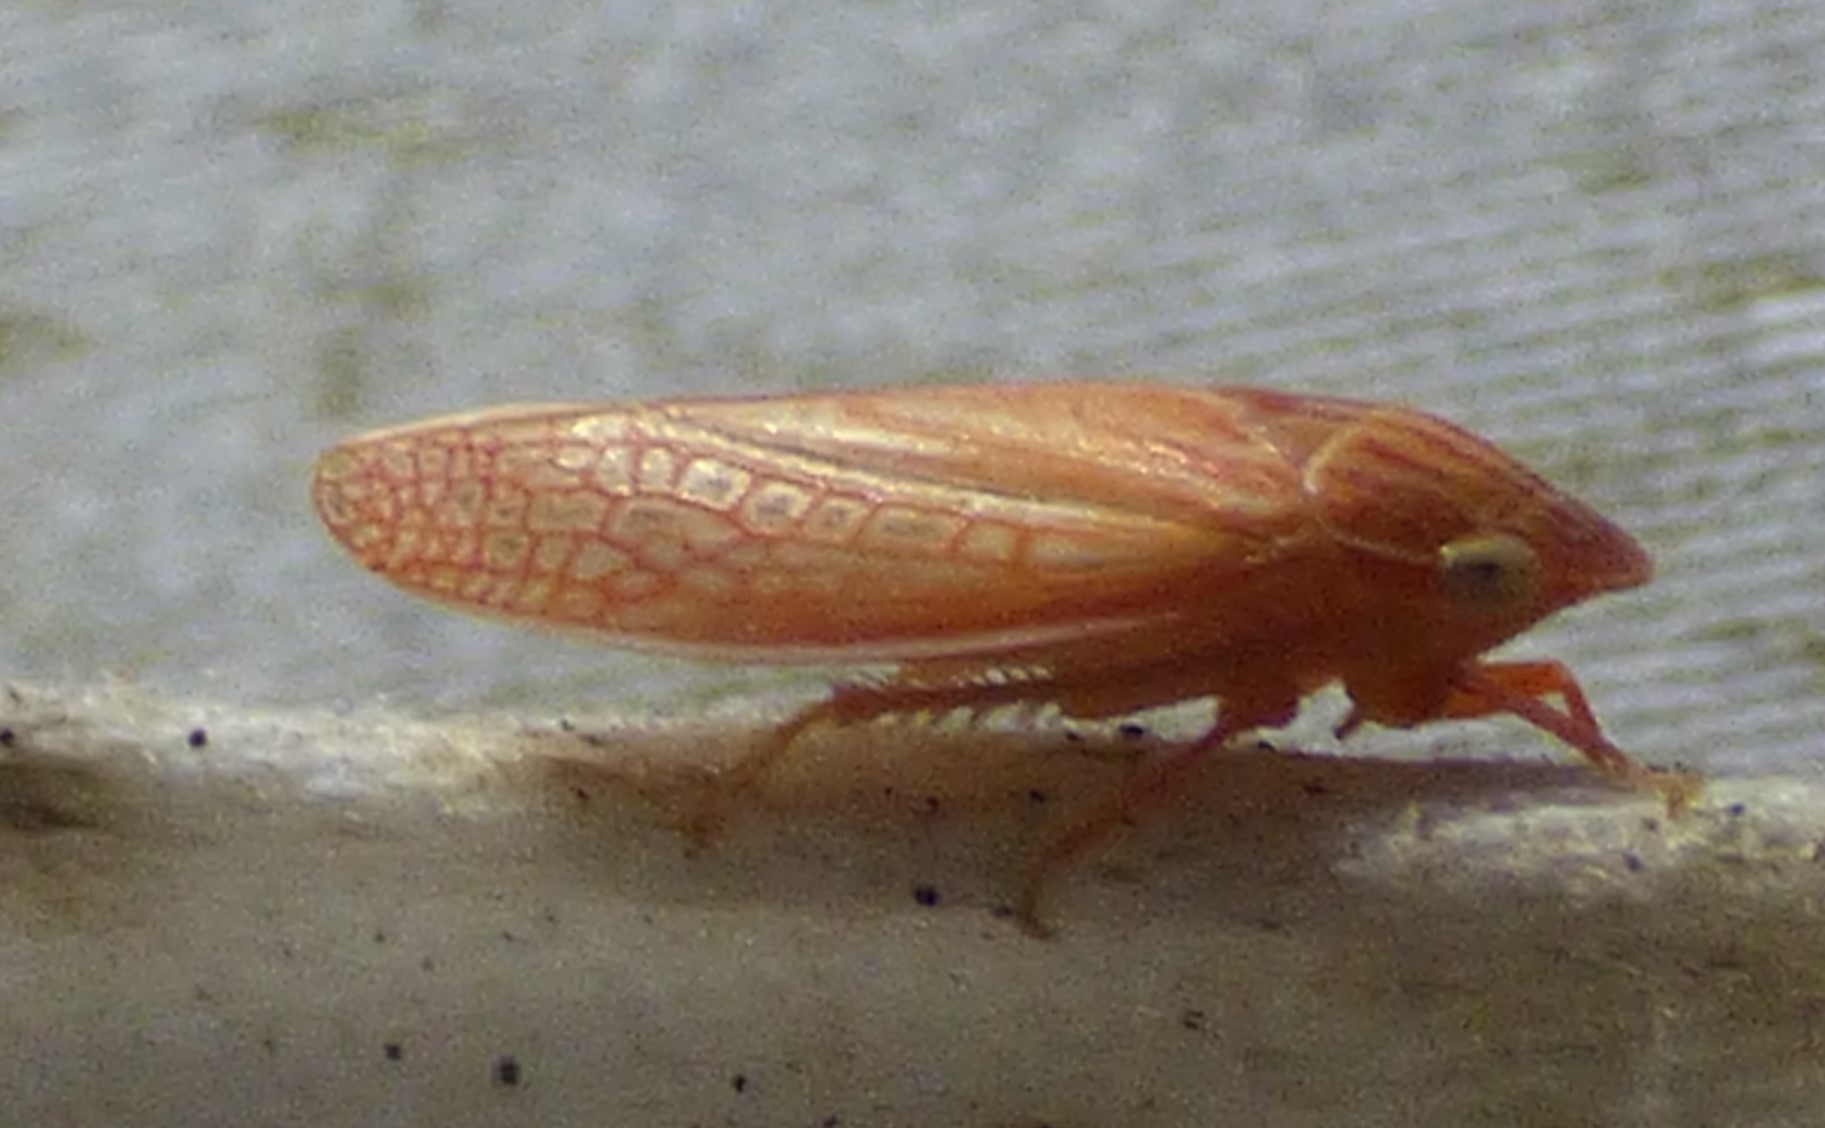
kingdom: Animalia
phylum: Arthropoda
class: Insecta
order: Hemiptera
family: Cicadellidae
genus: Gyponana
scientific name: Gyponana gladia
